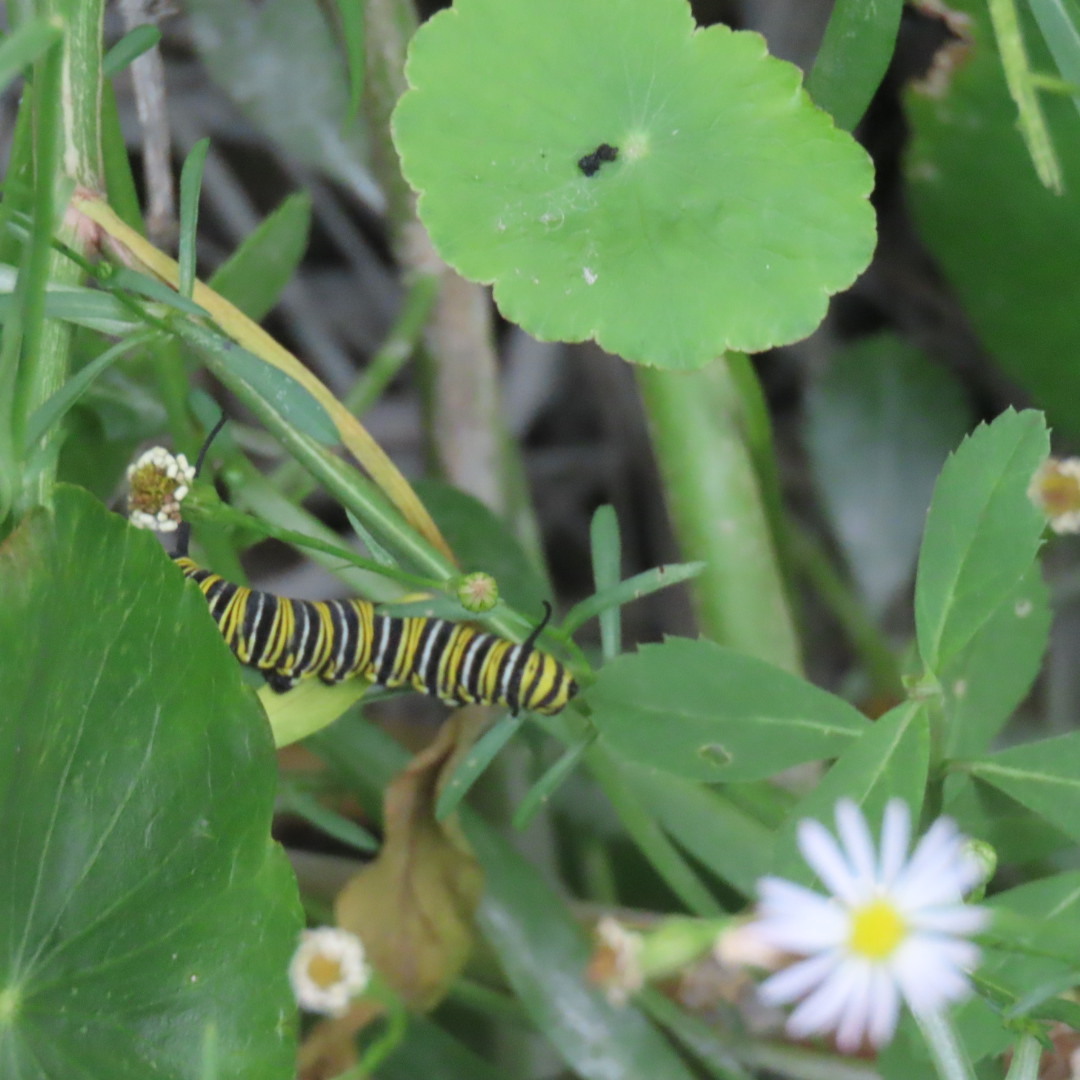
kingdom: Animalia
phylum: Arthropoda
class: Insecta
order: Lepidoptera
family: Nymphalidae
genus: Danaus
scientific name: Danaus plexippus
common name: Monarch
